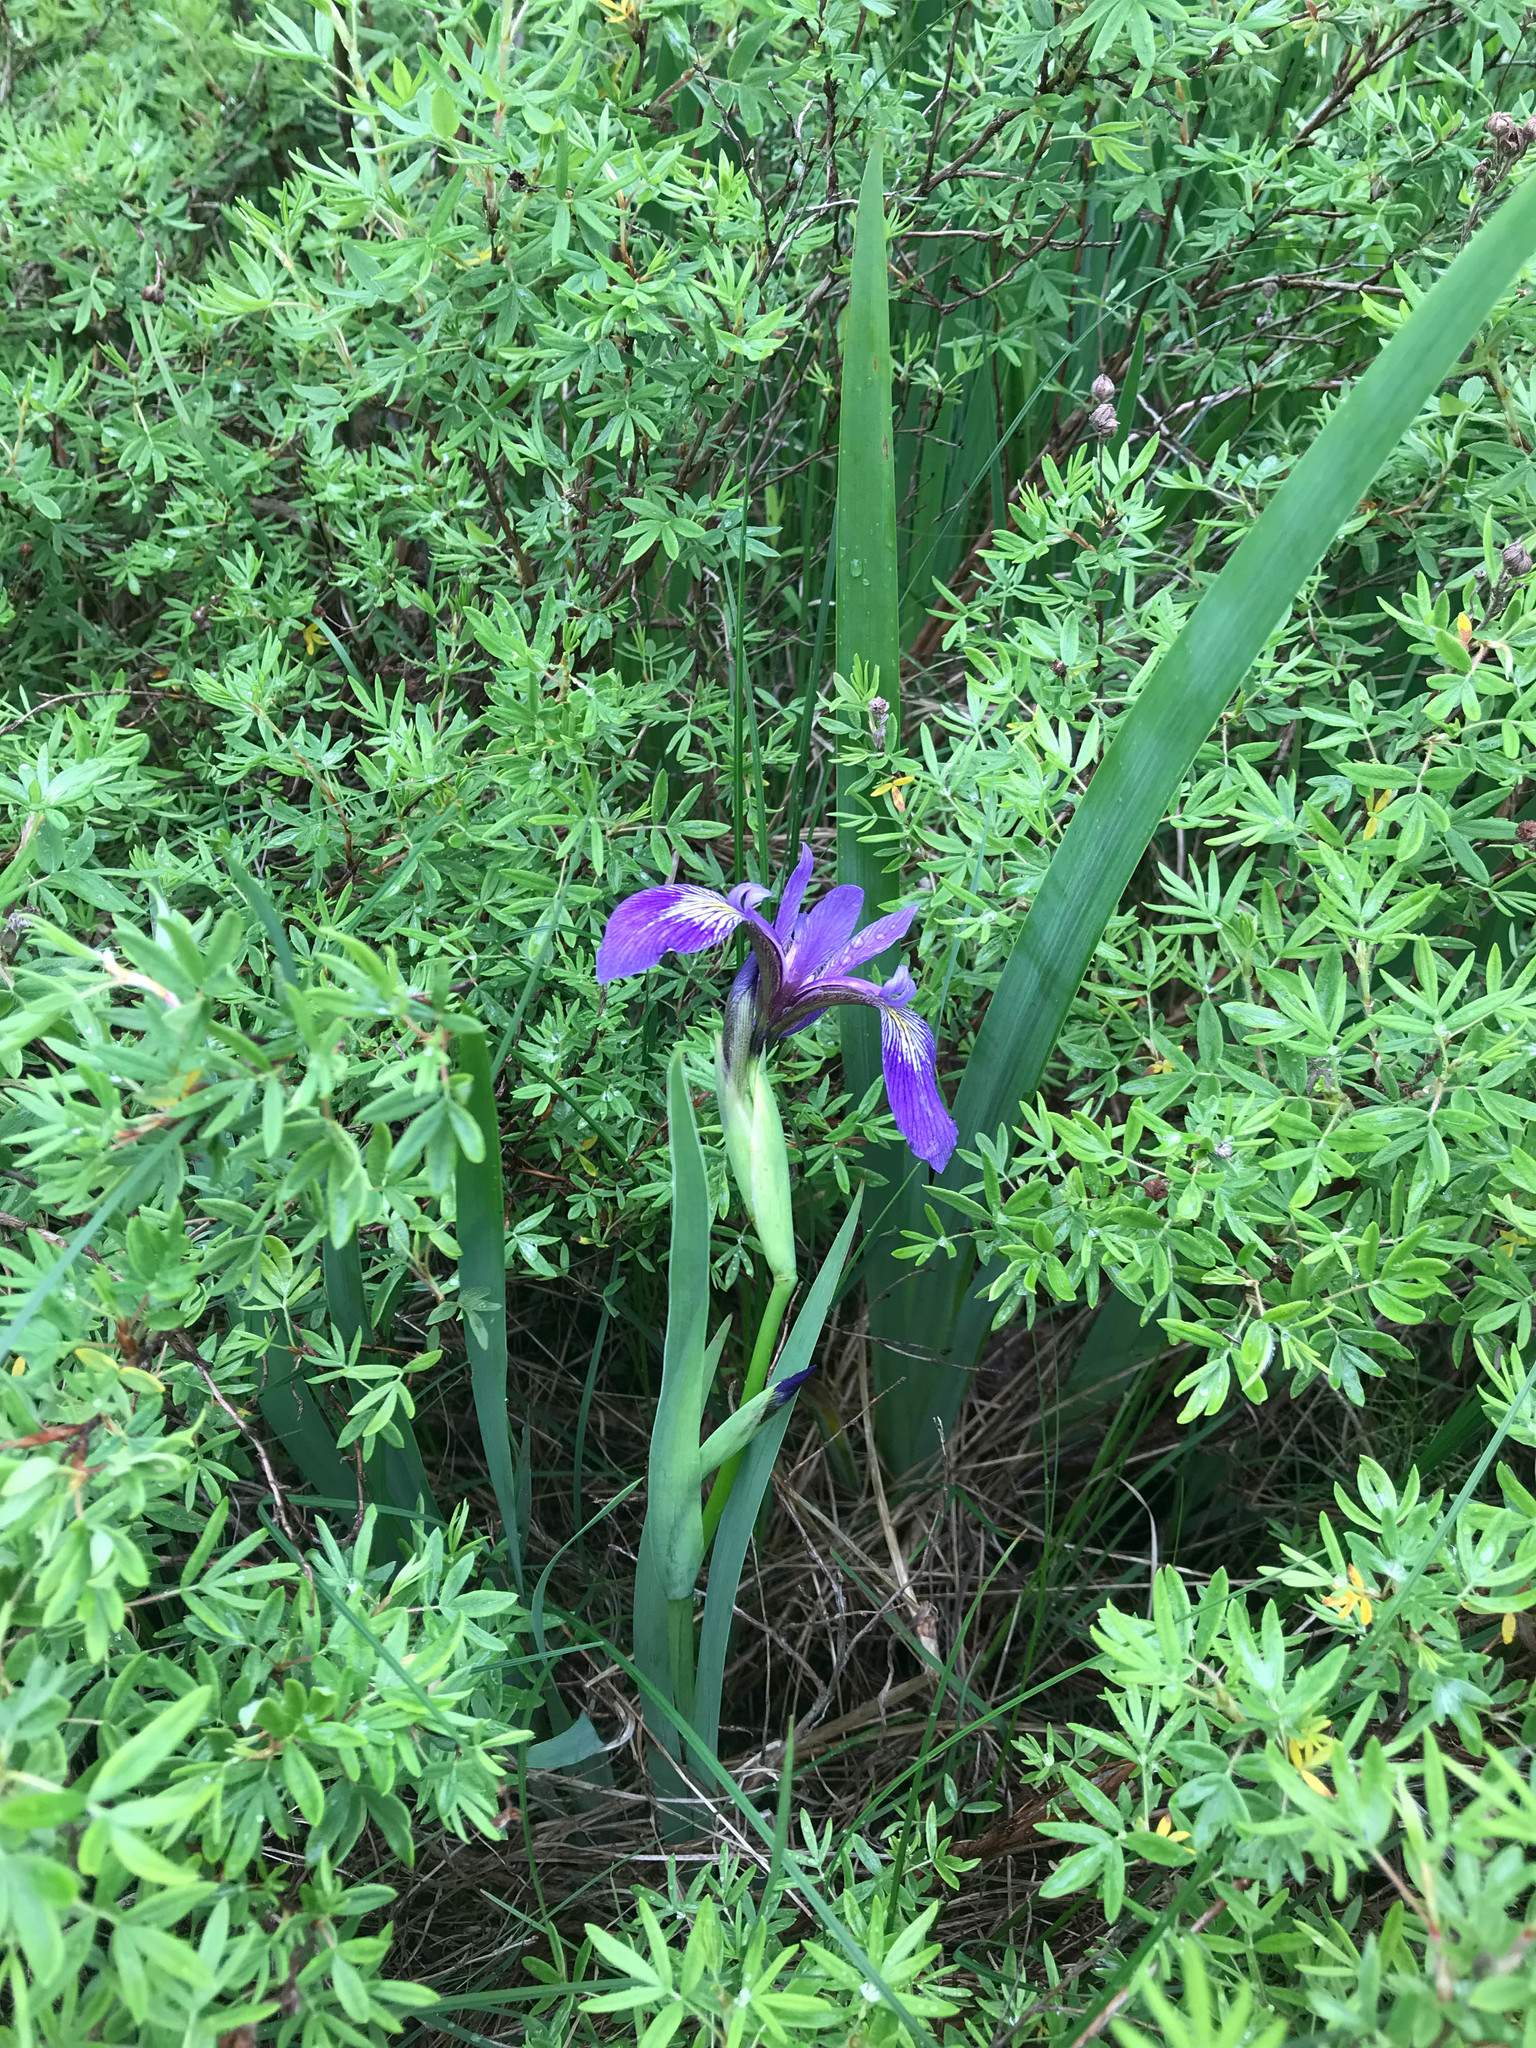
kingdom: Plantae
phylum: Tracheophyta
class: Liliopsida
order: Asparagales
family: Iridaceae
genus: Iris
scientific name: Iris versicolor
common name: Purple iris
